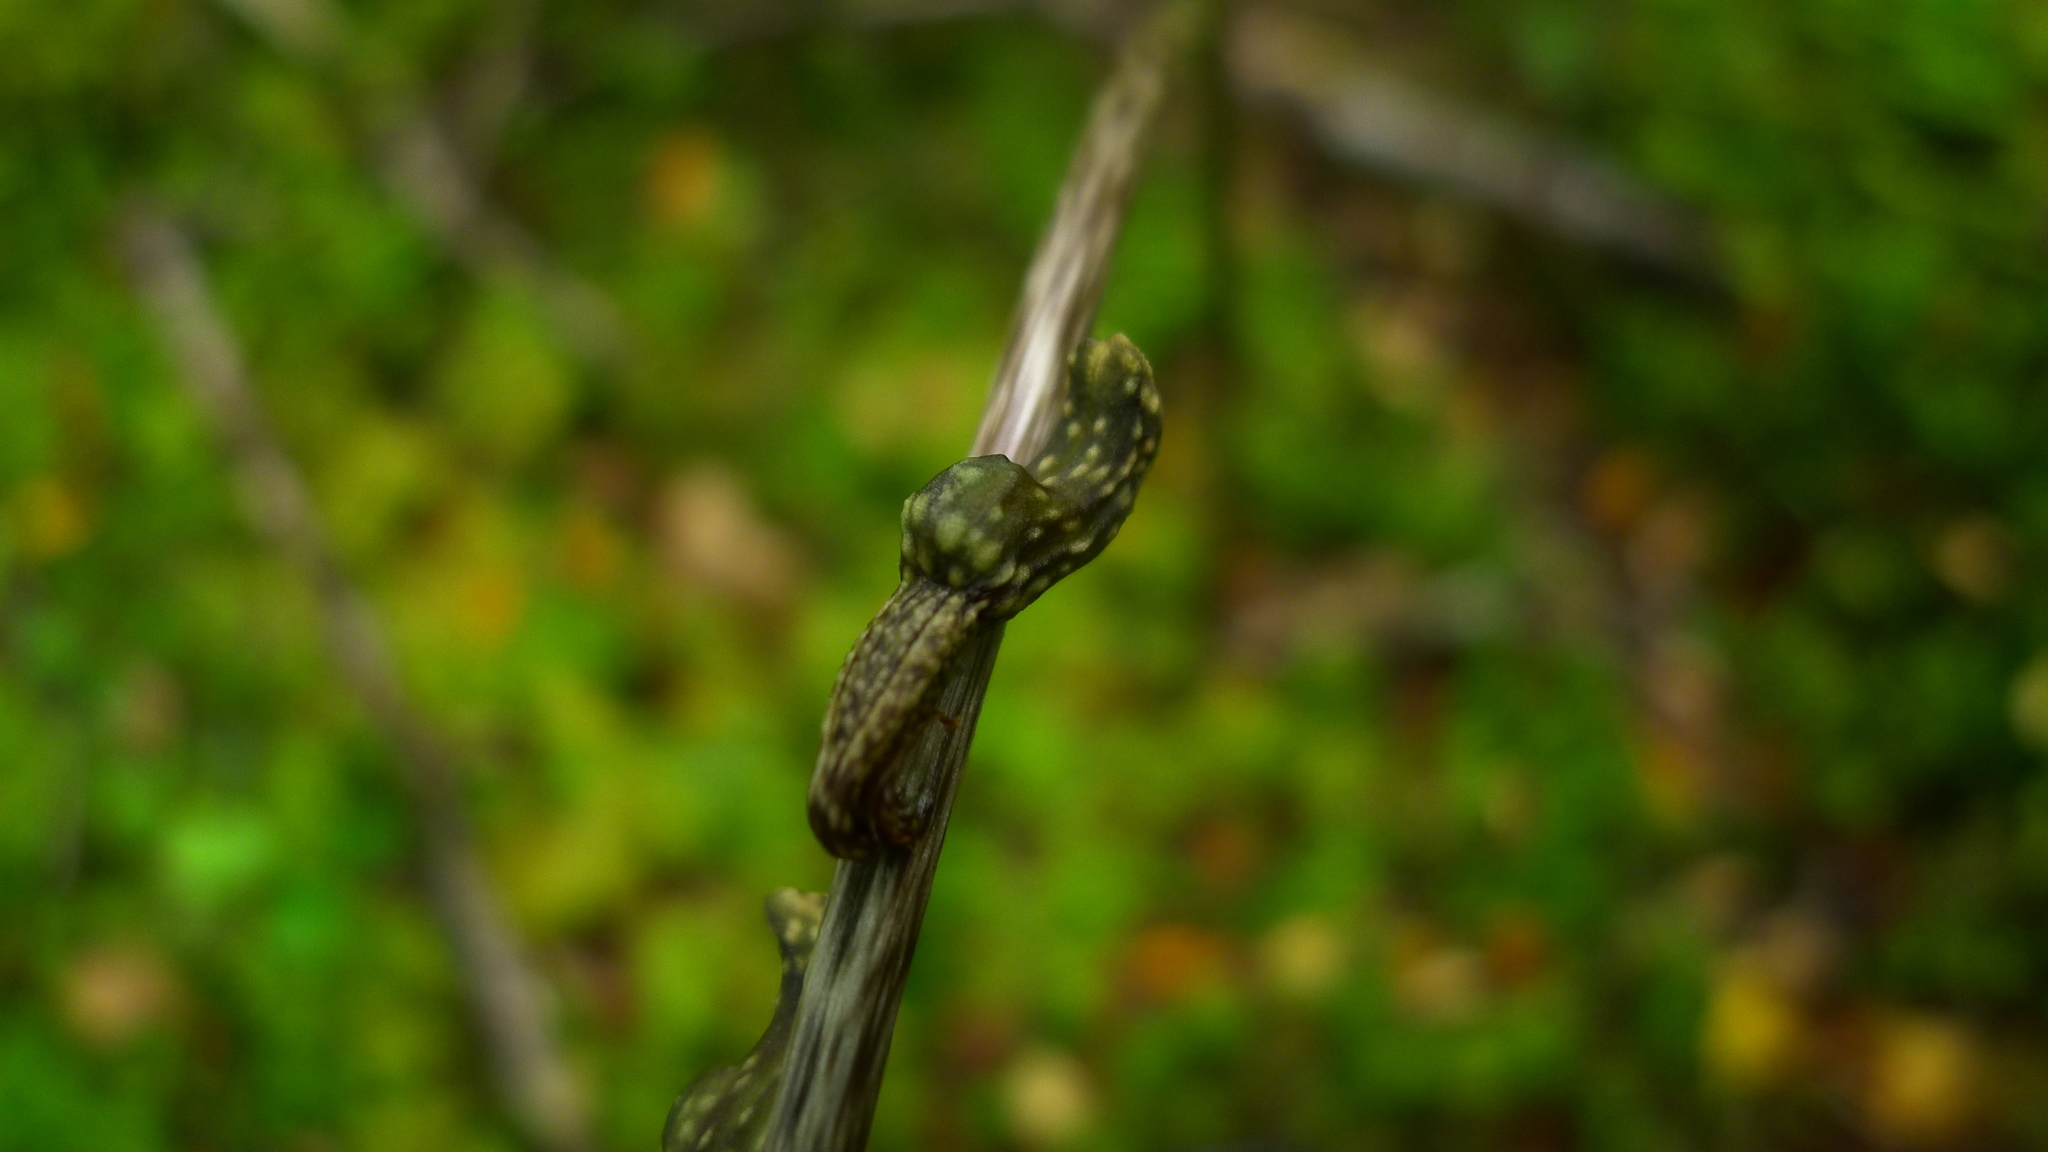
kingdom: Plantae
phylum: Tracheophyta
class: Liliopsida
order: Asparagales
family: Orchidaceae
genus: Gastrodia
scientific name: Gastrodia cunninghamii
